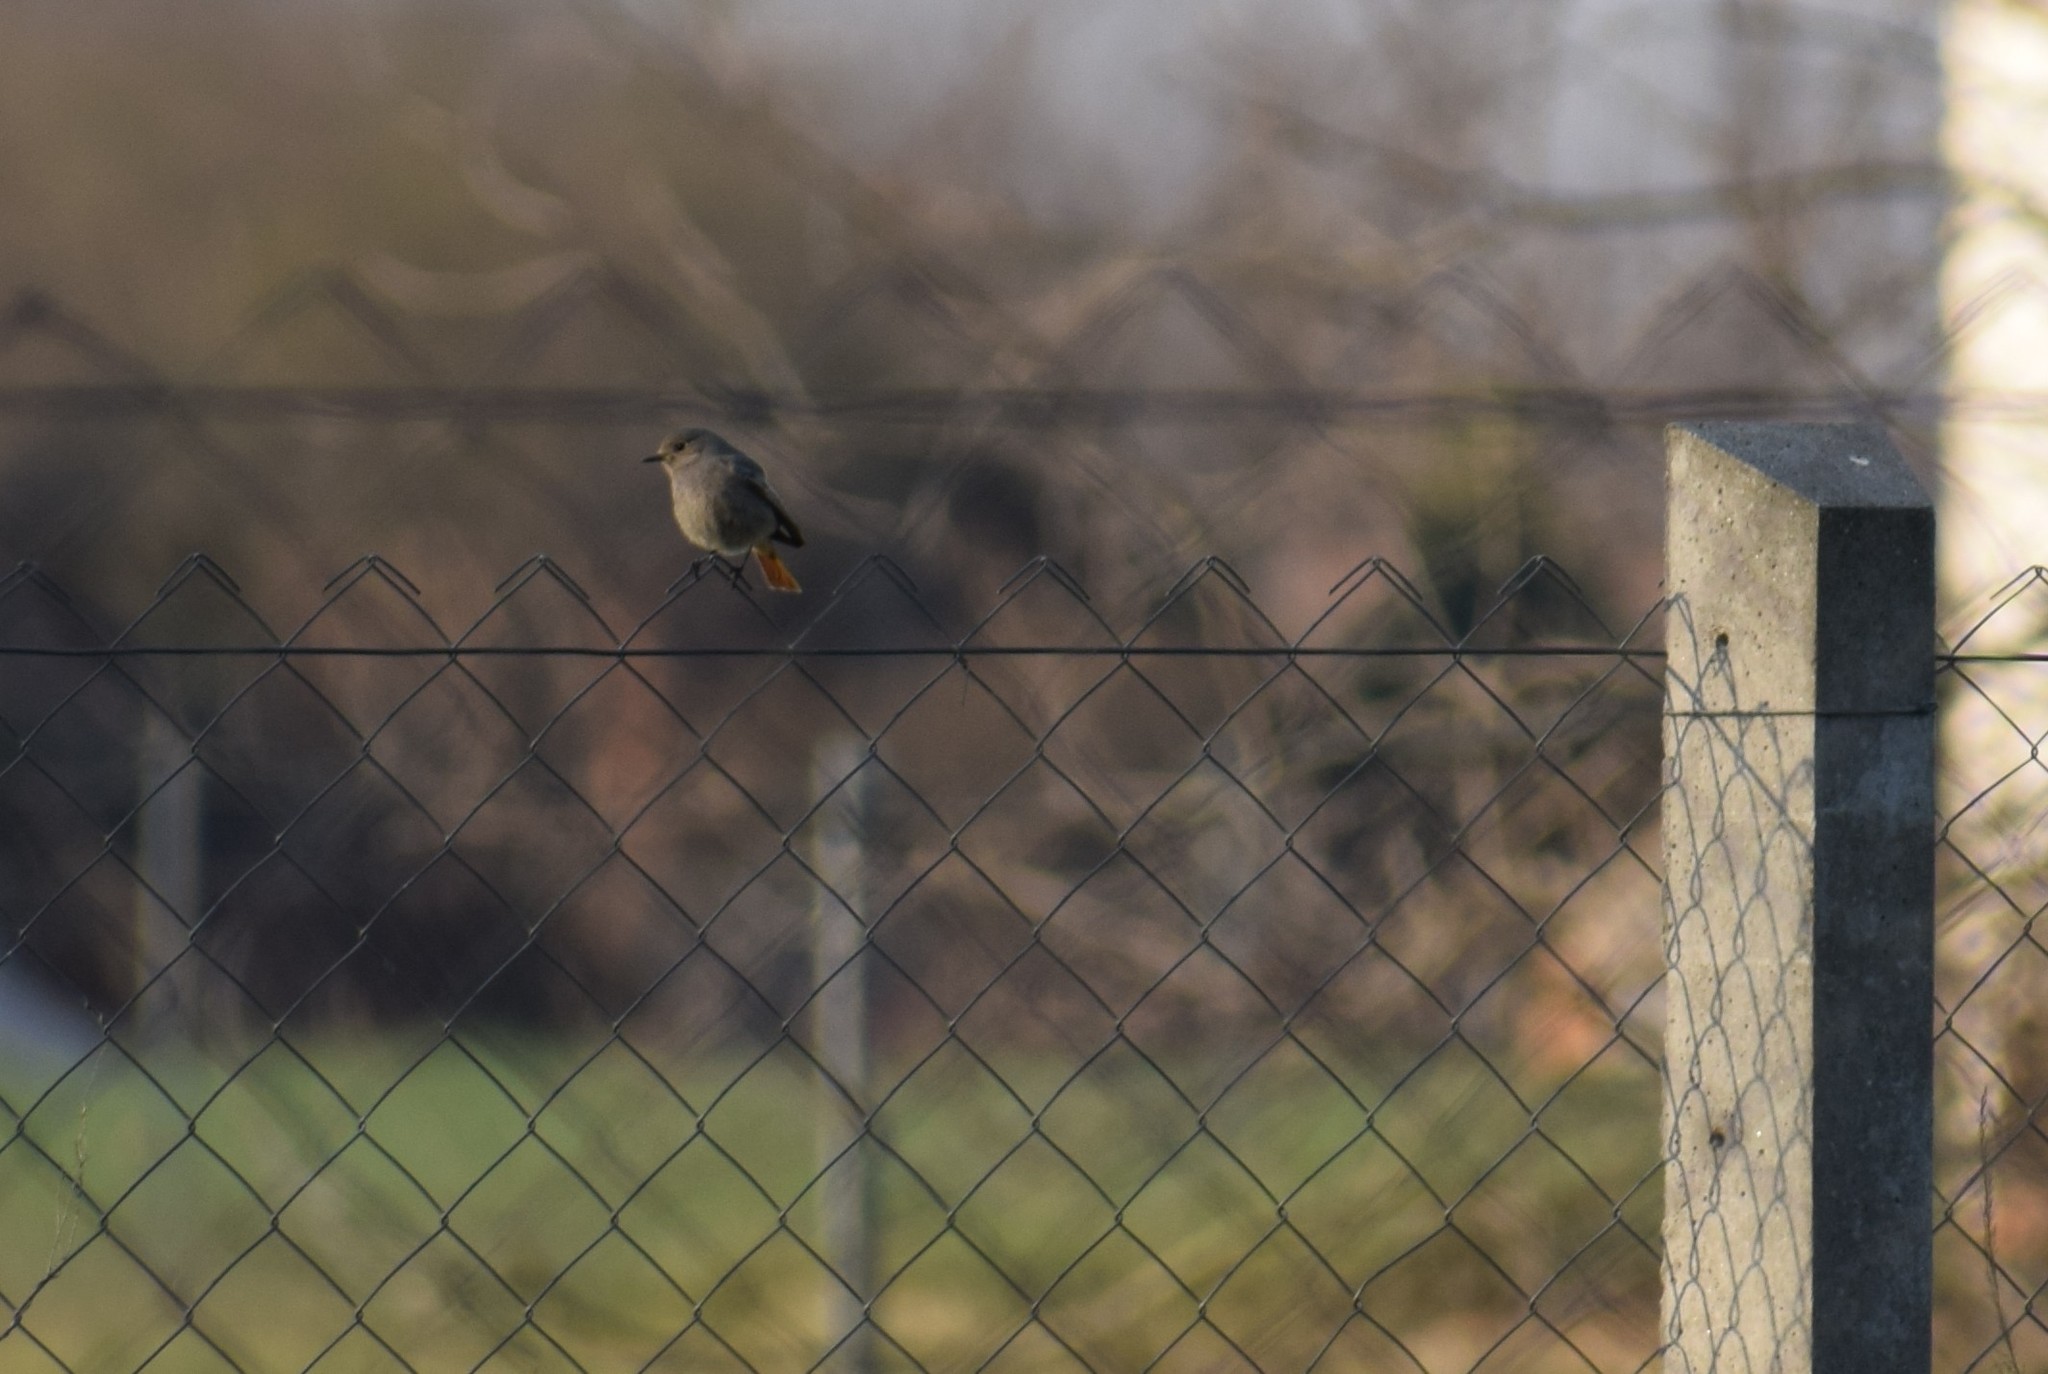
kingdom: Animalia
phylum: Chordata
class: Aves
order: Passeriformes
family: Muscicapidae
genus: Phoenicurus
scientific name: Phoenicurus ochruros
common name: Black redstart
